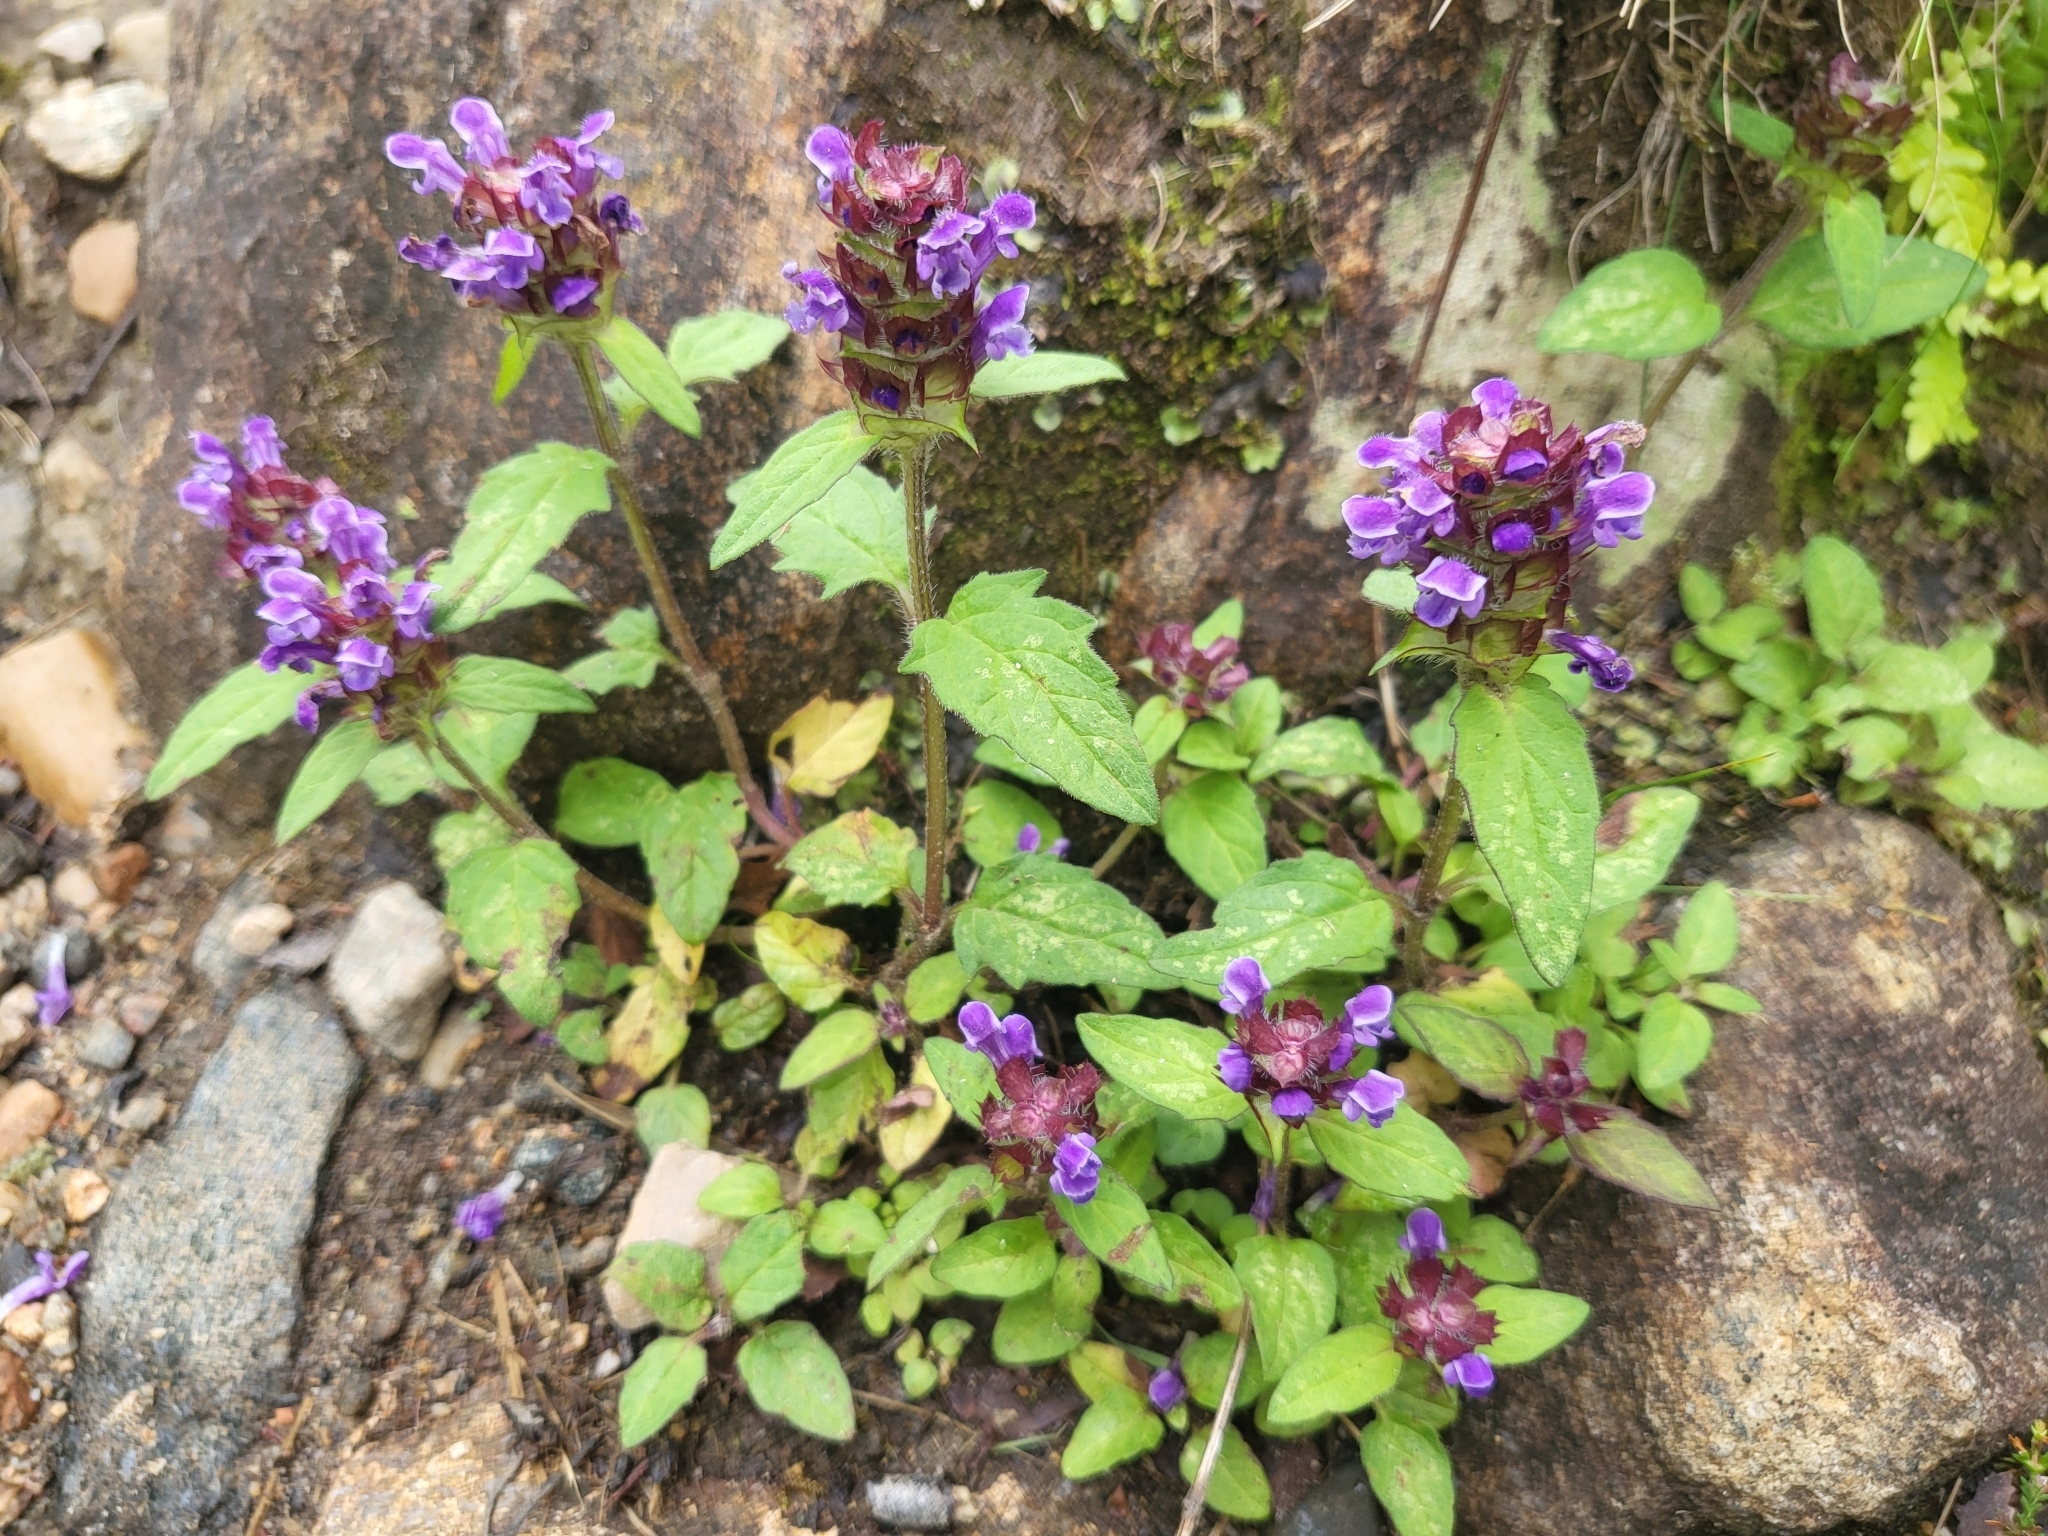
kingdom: Plantae
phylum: Tracheophyta
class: Magnoliopsida
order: Lamiales
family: Lamiaceae
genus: Prunella
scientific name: Prunella vulgaris
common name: Heal-all
